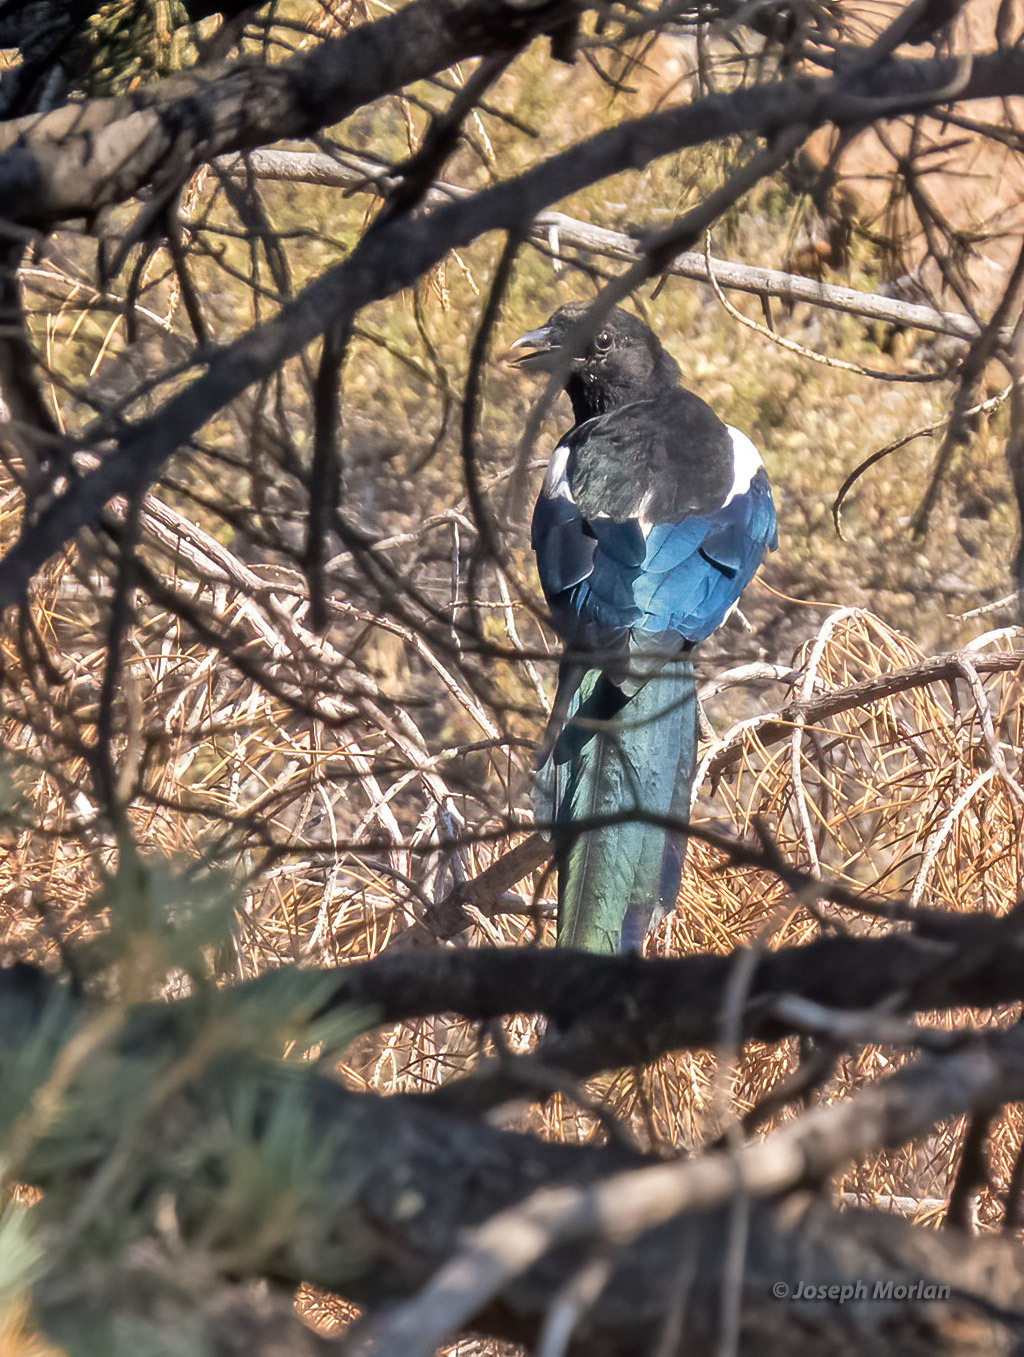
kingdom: Animalia
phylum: Chordata
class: Aves
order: Passeriformes
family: Corvidae
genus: Pica
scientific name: Pica hudsonia
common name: Black-billed magpie
